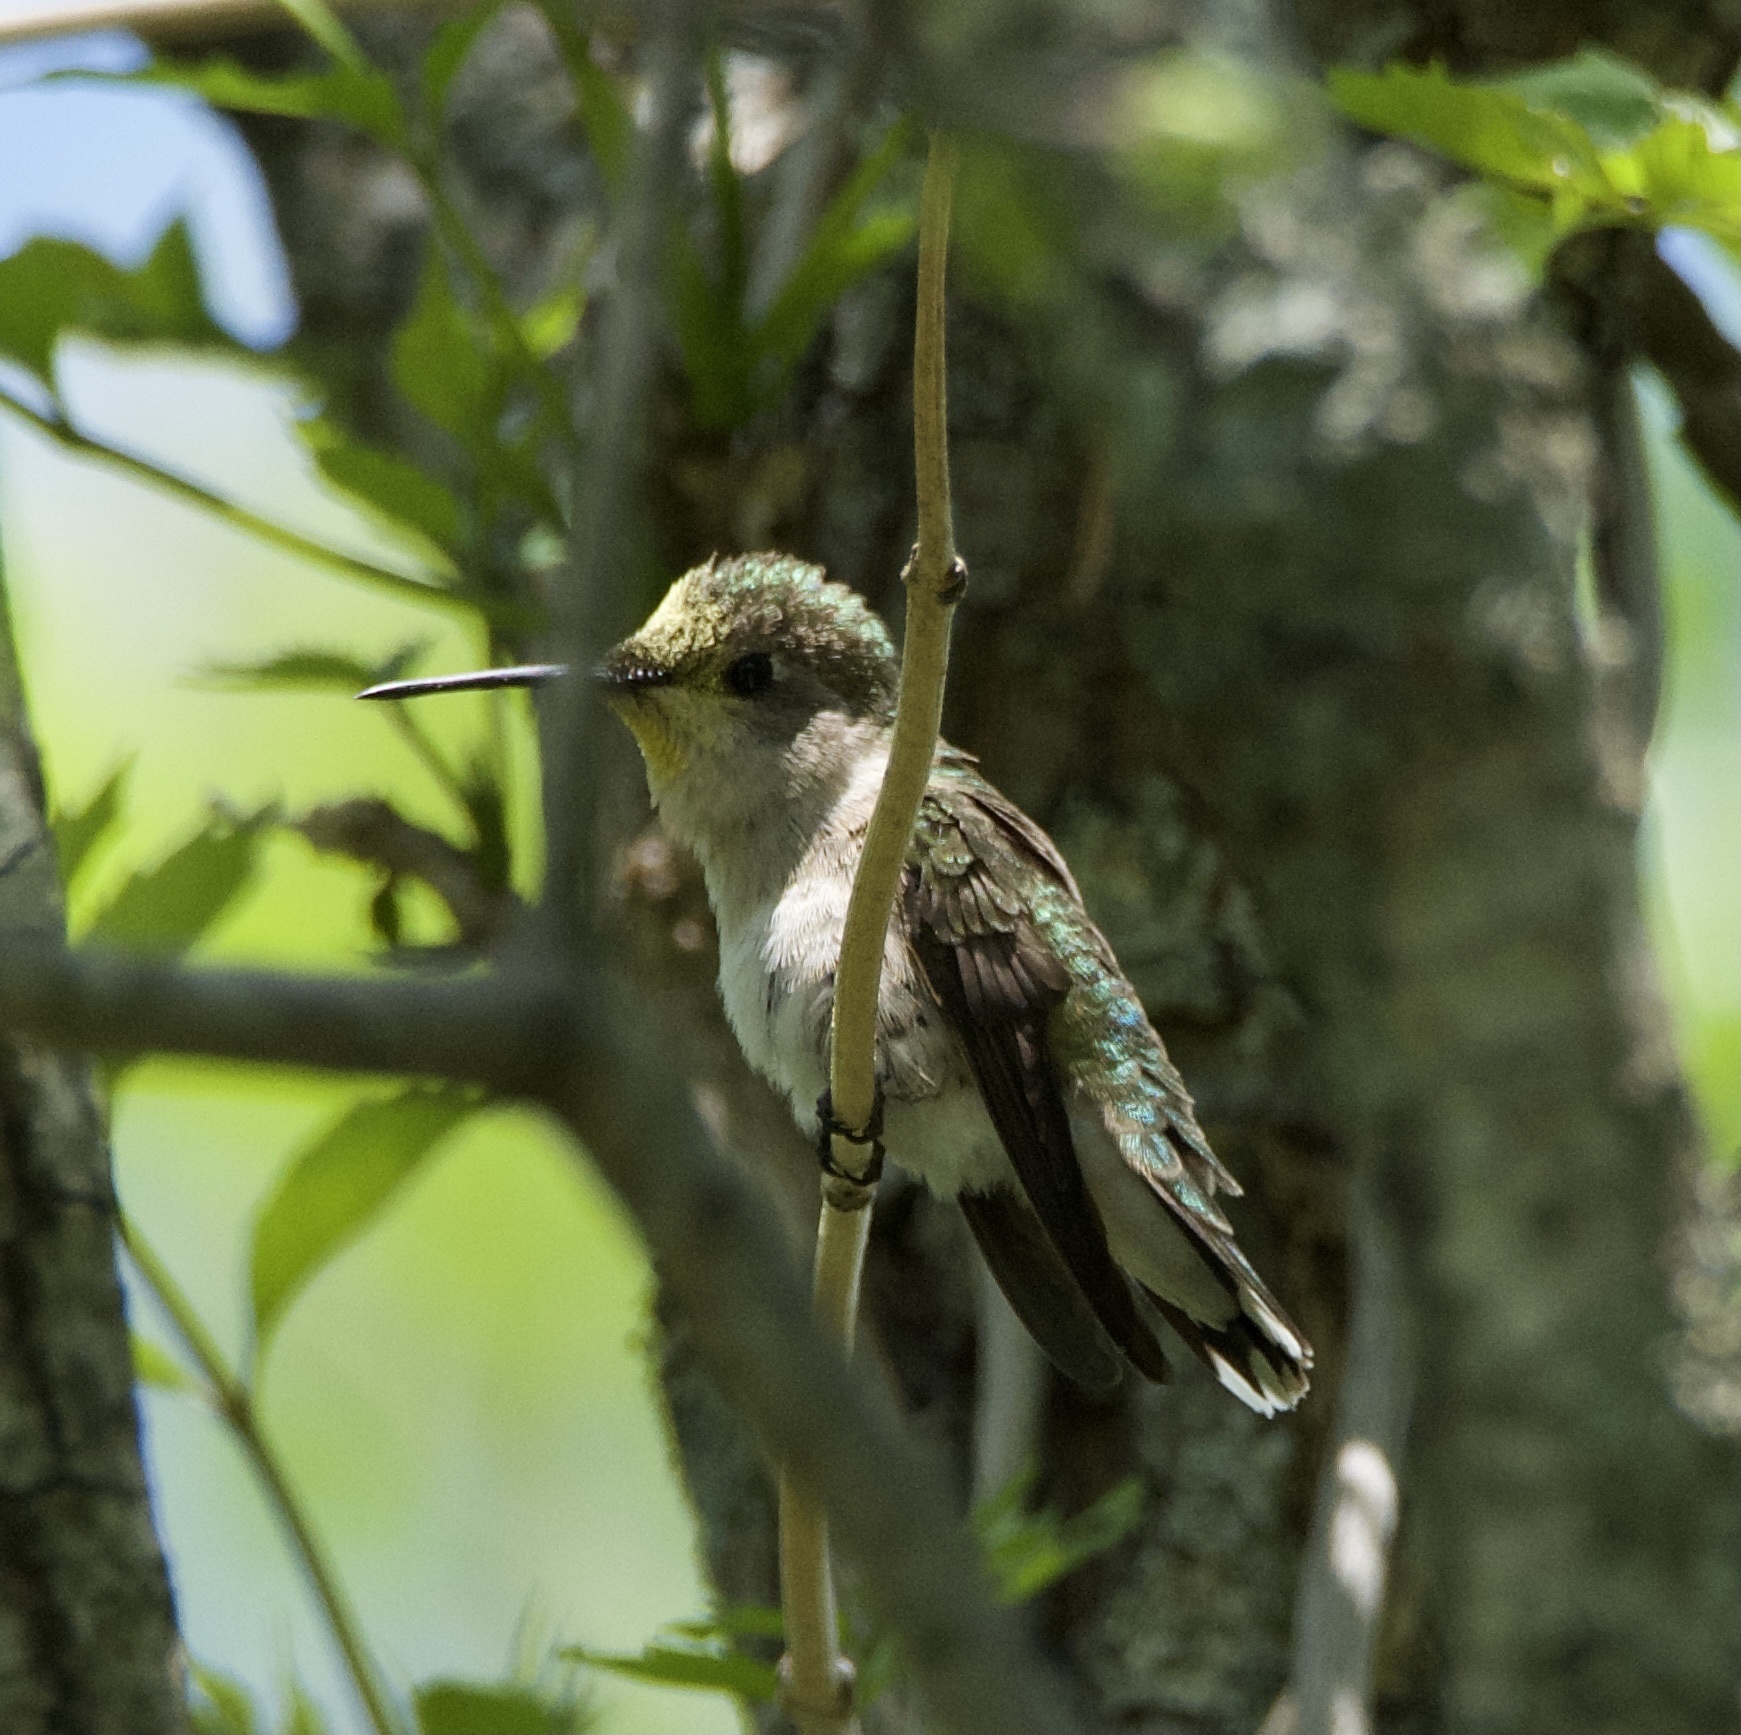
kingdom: Animalia
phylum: Chordata
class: Aves
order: Apodiformes
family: Trochilidae
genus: Archilochus
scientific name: Archilochus colubris
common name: Ruby-throated hummingbird
